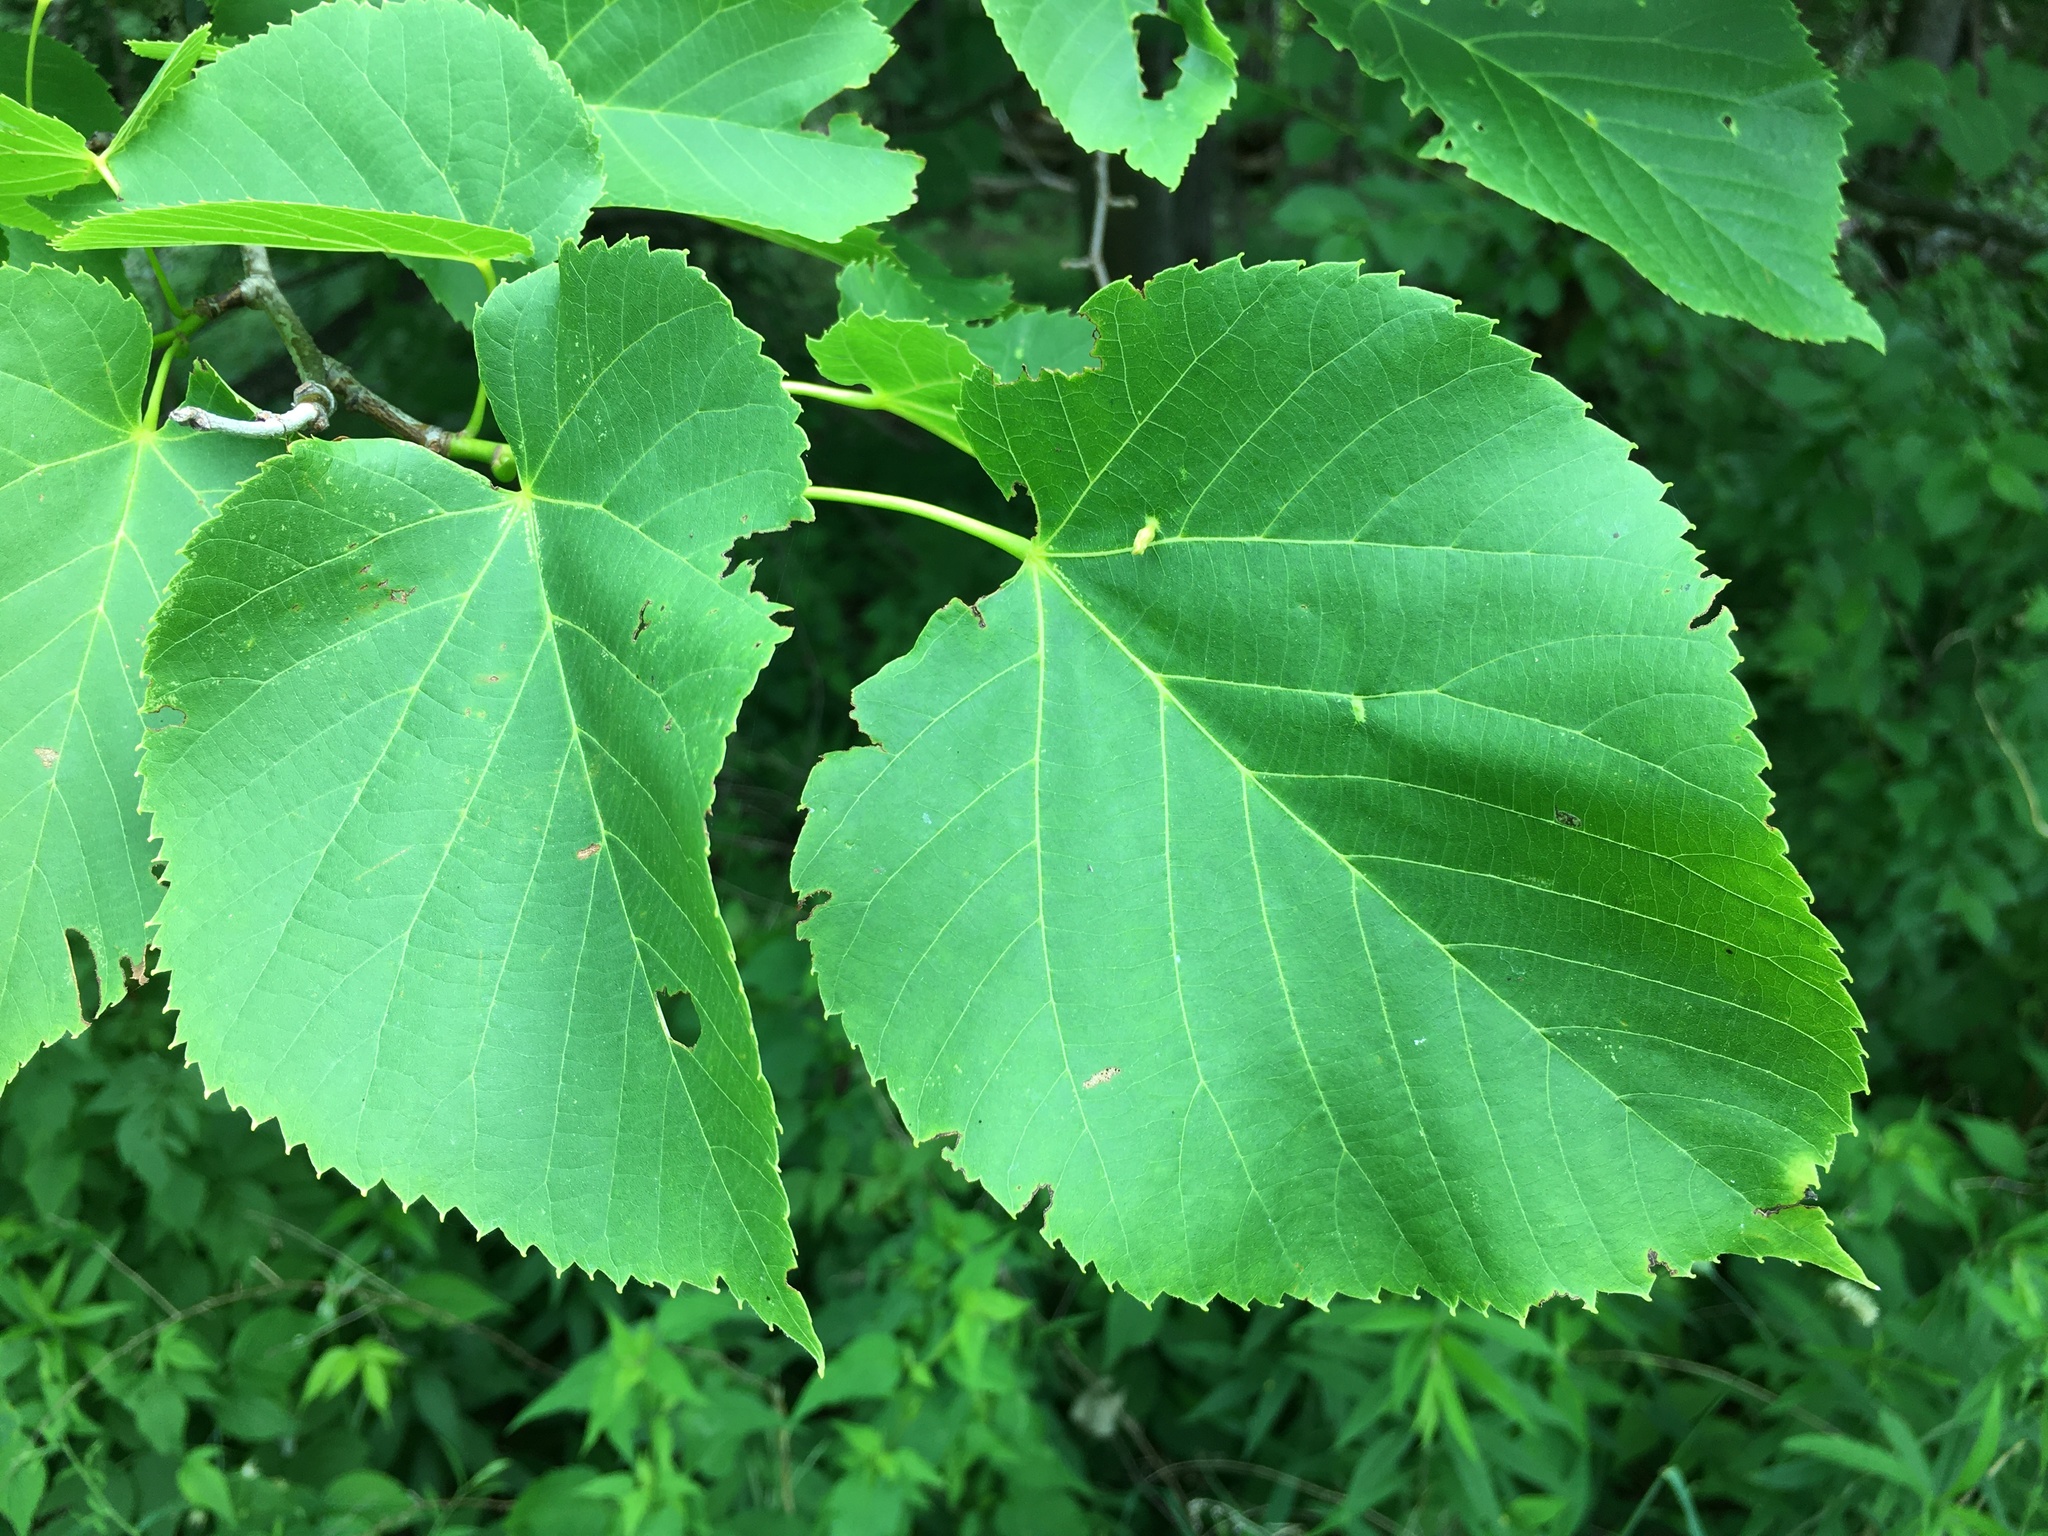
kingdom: Plantae
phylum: Tracheophyta
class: Magnoliopsida
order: Malvales
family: Malvaceae
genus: Tilia
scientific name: Tilia americana
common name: Basswood
